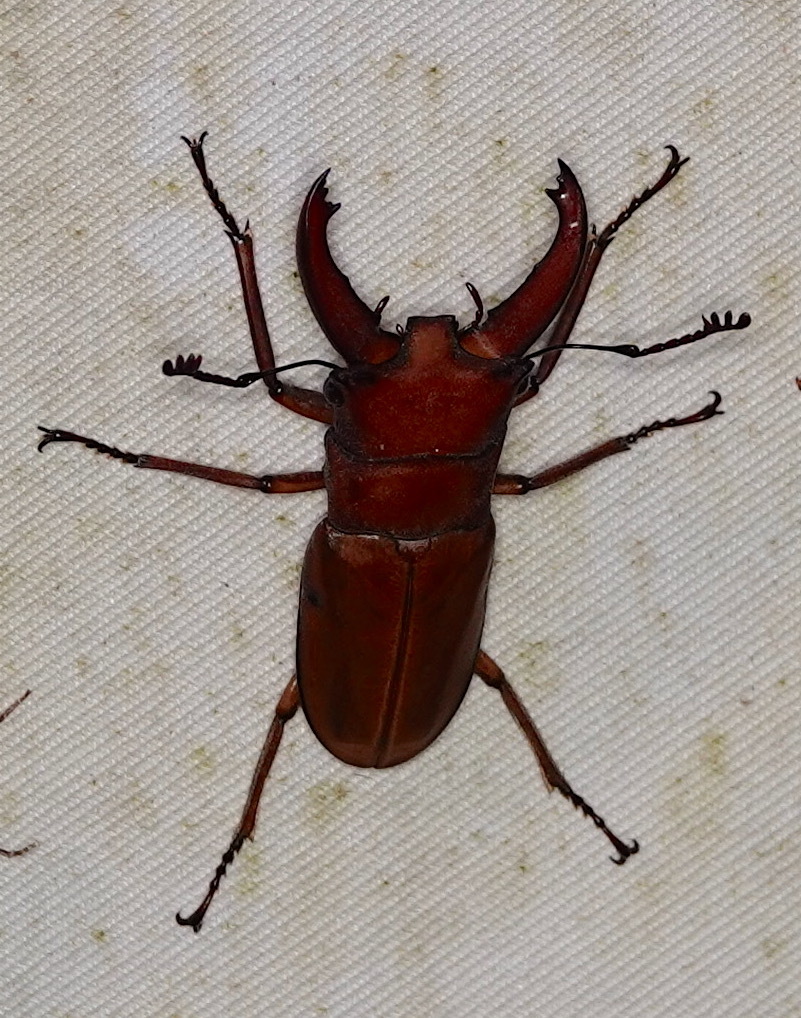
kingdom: Animalia
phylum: Arthropoda
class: Insecta
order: Coleoptera
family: Lucanidae
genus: Cyclommatus
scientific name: Cyclommatus lunifer
